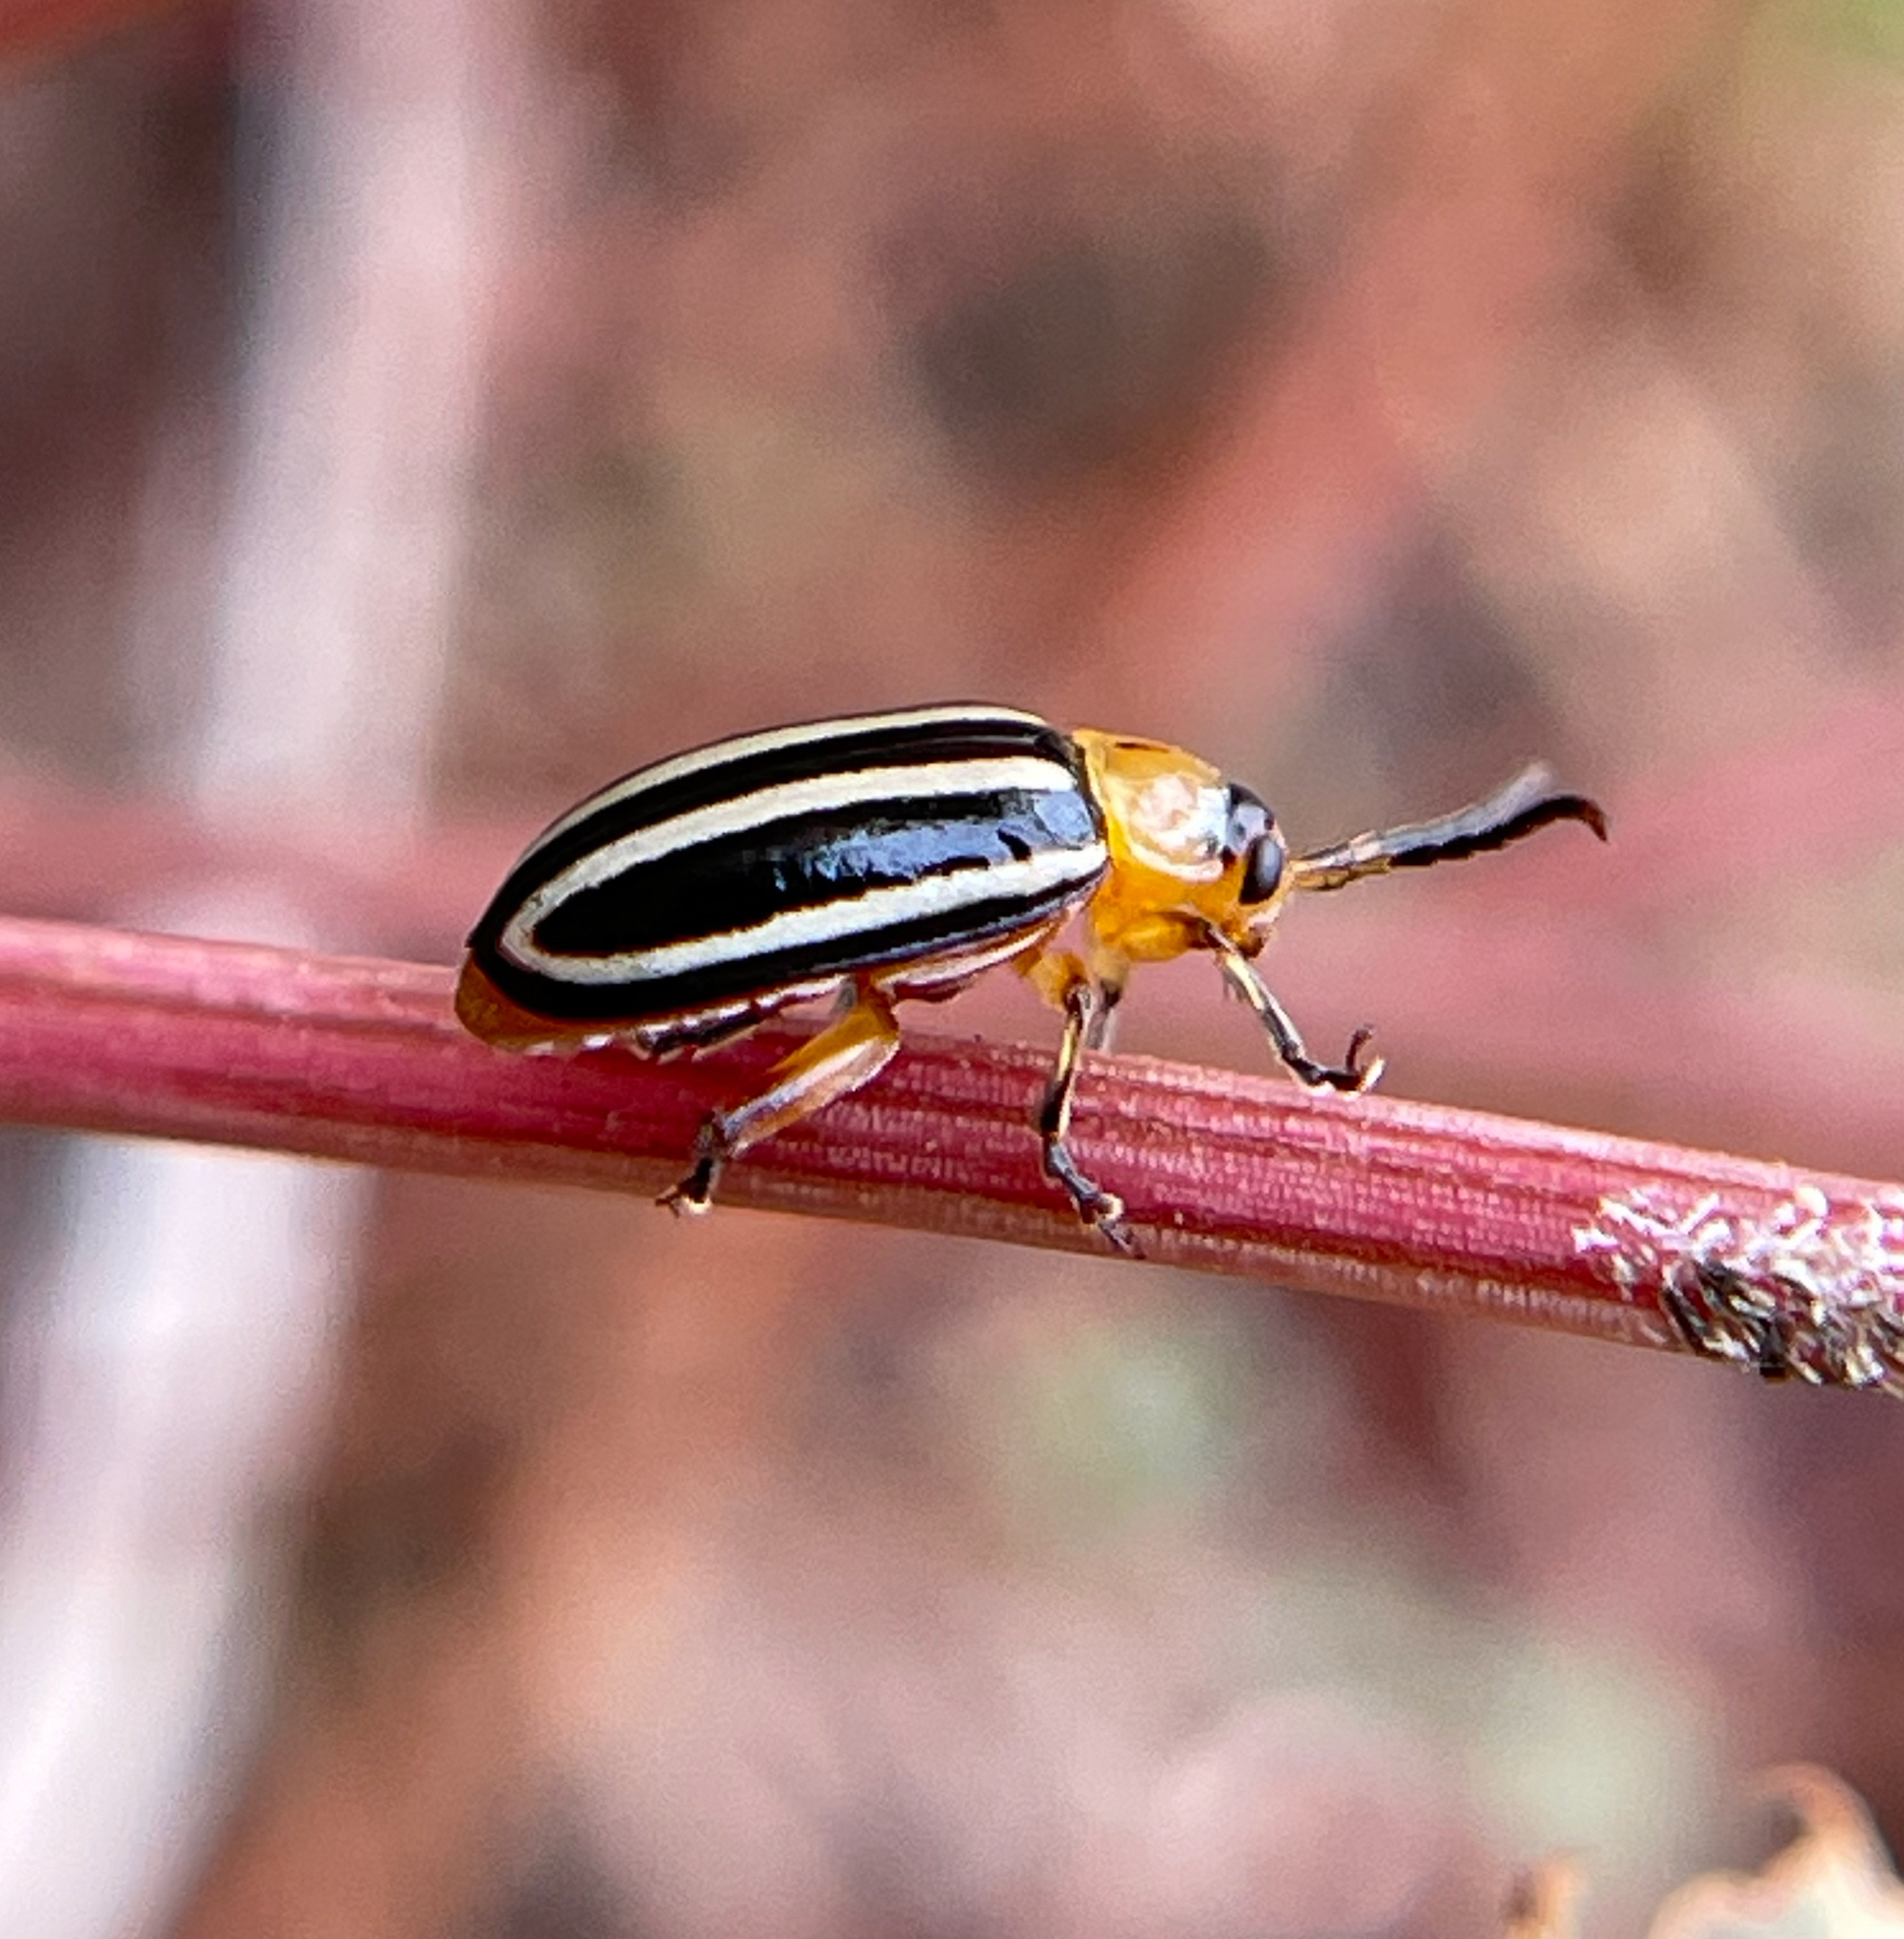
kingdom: Animalia
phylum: Arthropoda
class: Insecta
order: Coleoptera
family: Chrysomelidae
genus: Disonycha
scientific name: Disonycha glabrata
